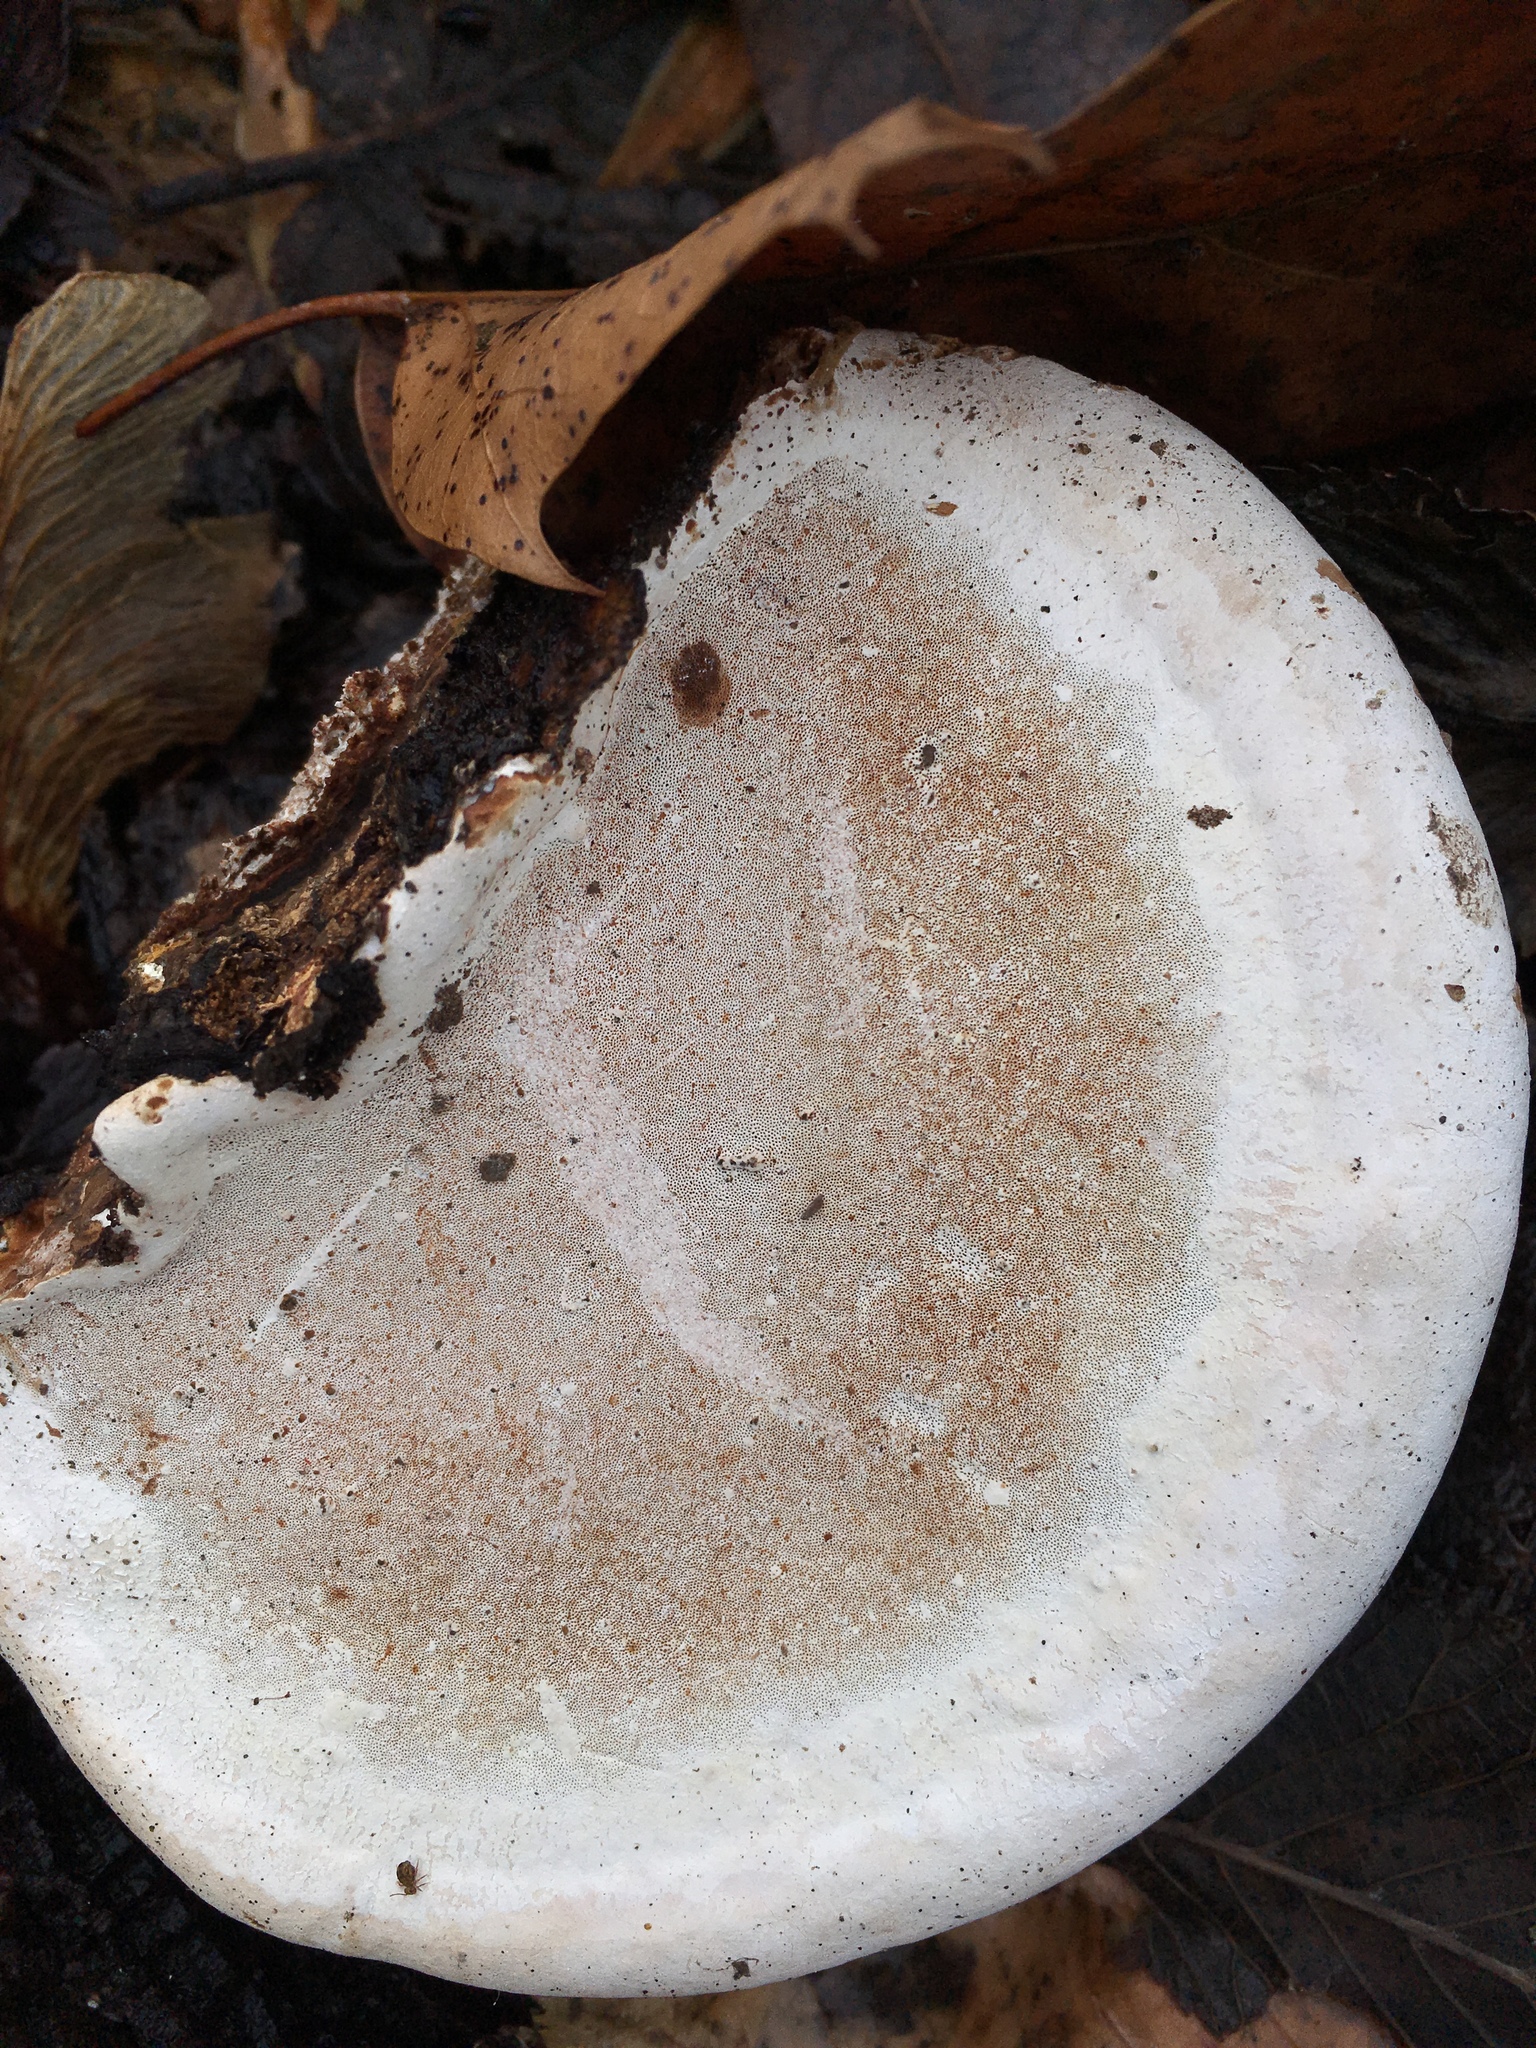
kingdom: Fungi
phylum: Basidiomycota
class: Agaricomycetes
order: Polyporales
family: Polyporaceae
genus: Ganoderma
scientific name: Ganoderma applanatum
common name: Artist's bracket
